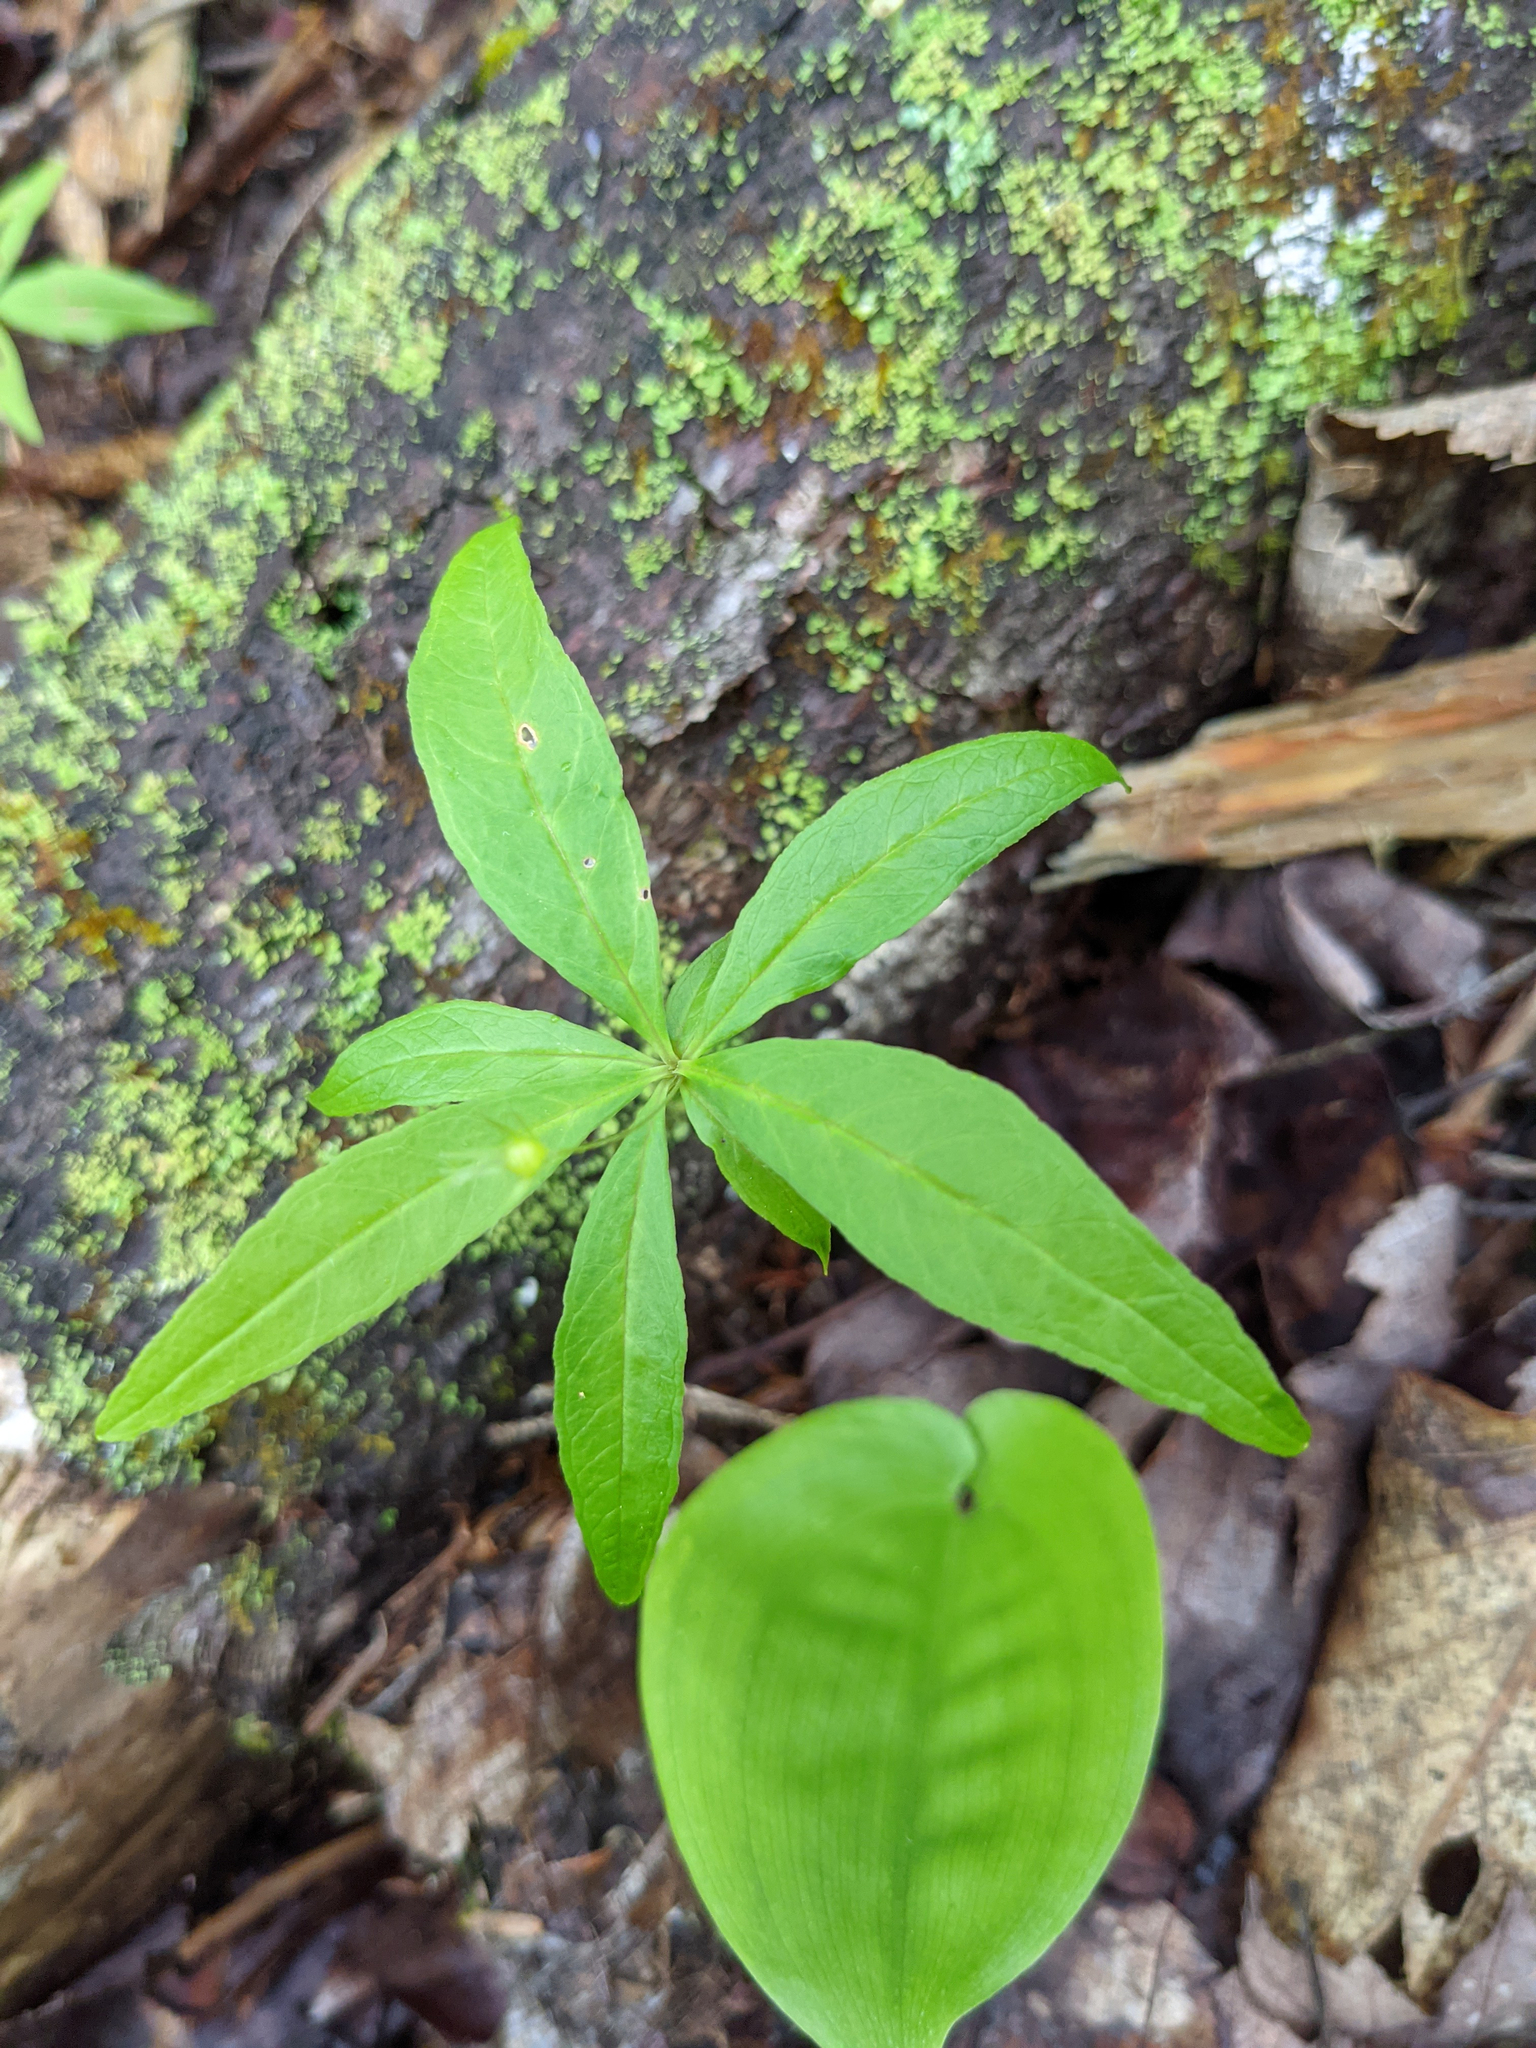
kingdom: Plantae
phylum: Tracheophyta
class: Magnoliopsida
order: Ericales
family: Primulaceae
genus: Lysimachia
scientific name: Lysimachia borealis
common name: American starflower
